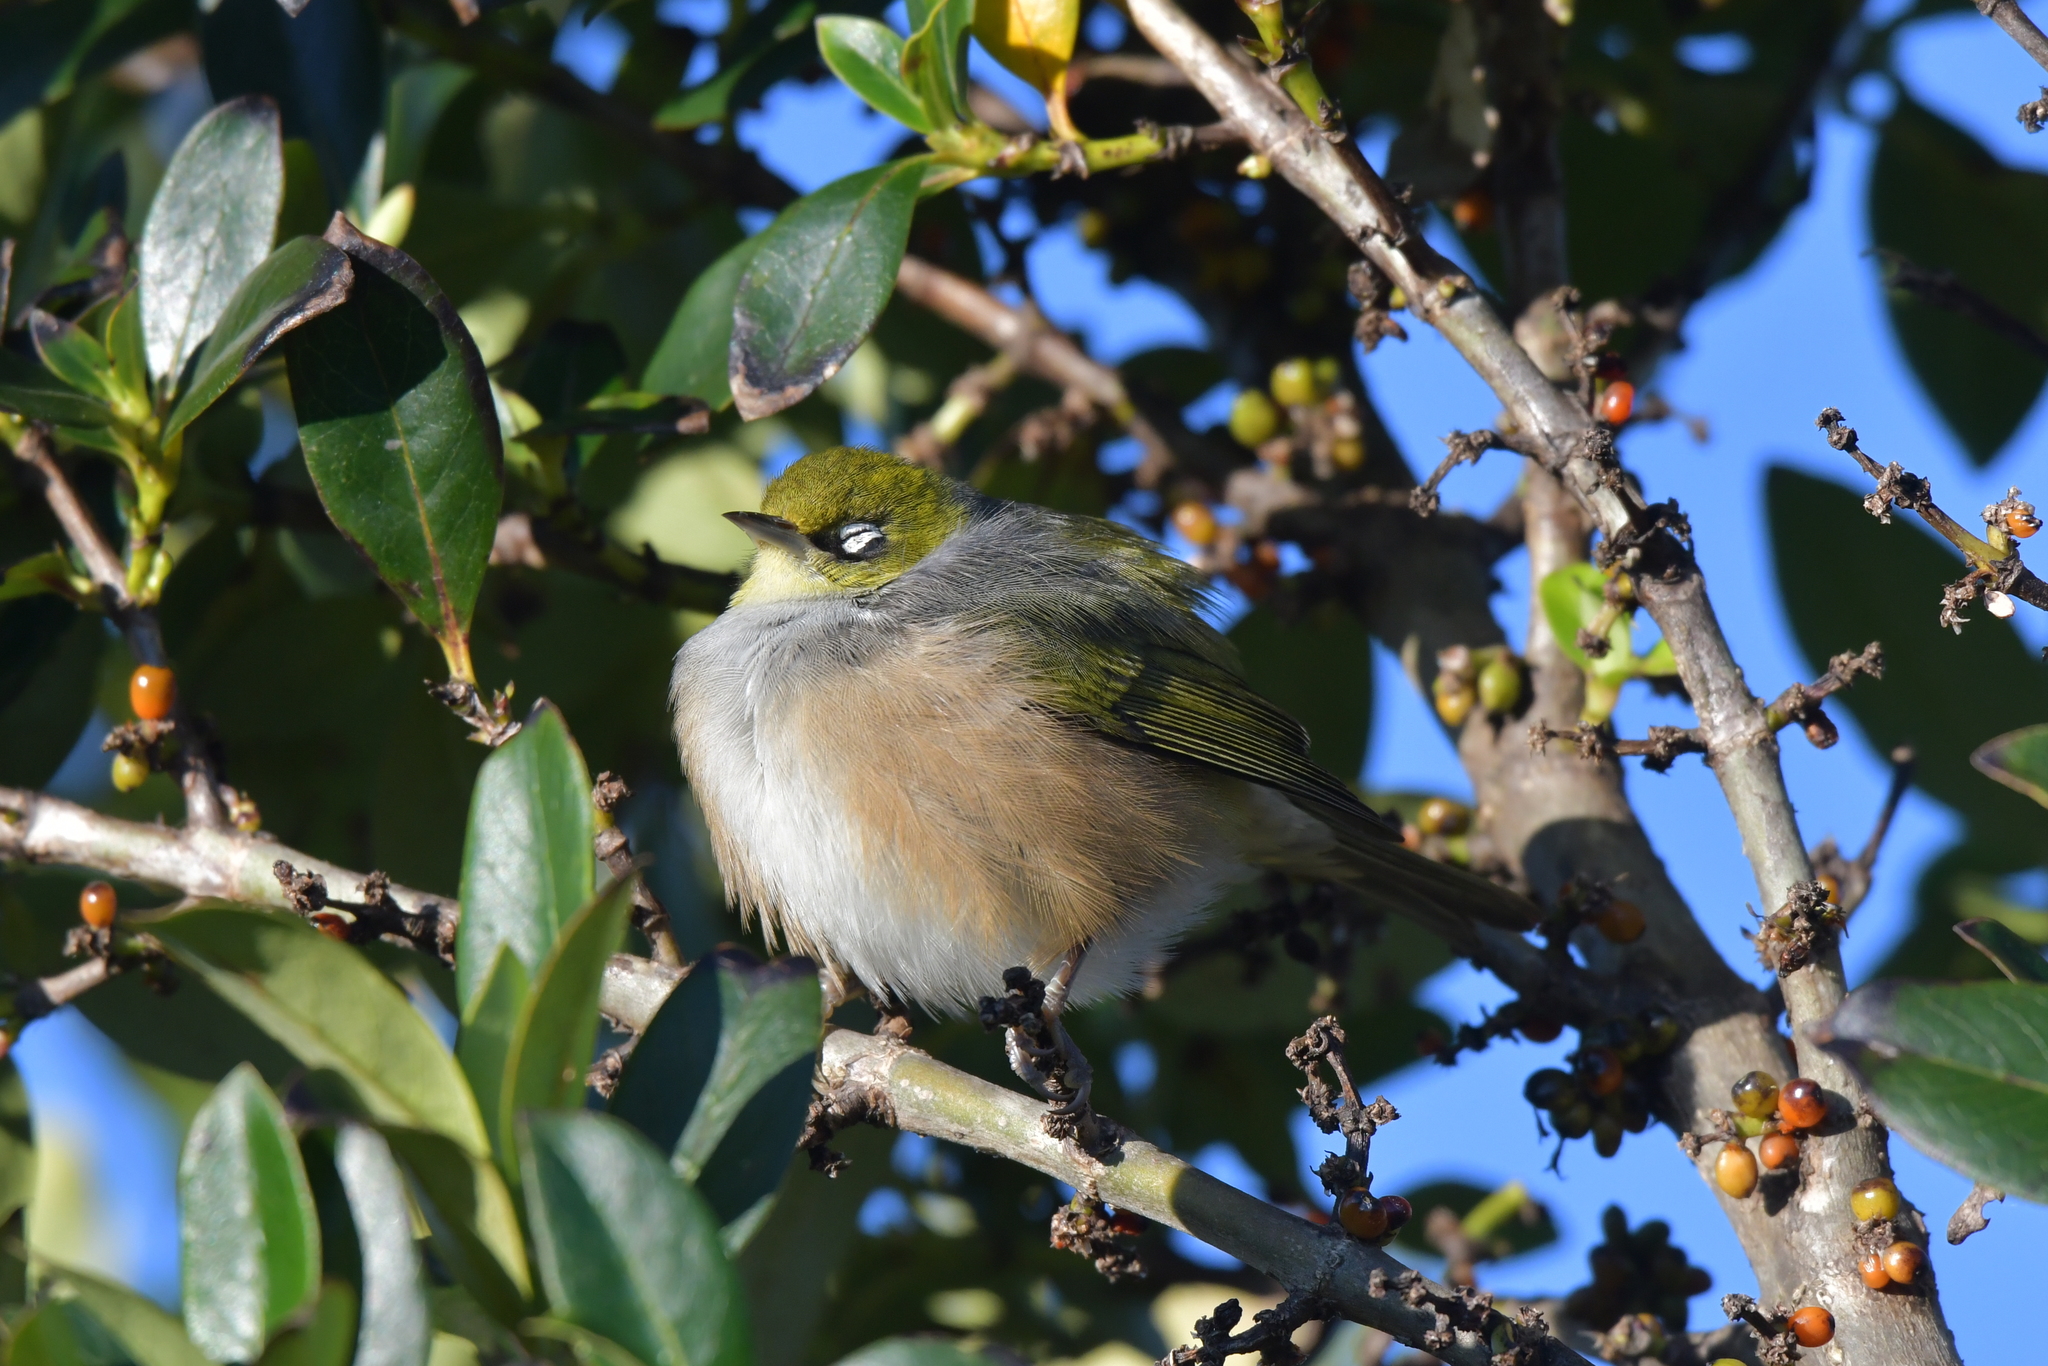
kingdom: Animalia
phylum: Chordata
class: Aves
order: Passeriformes
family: Zosteropidae
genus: Zosterops
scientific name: Zosterops lateralis
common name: Silvereye
